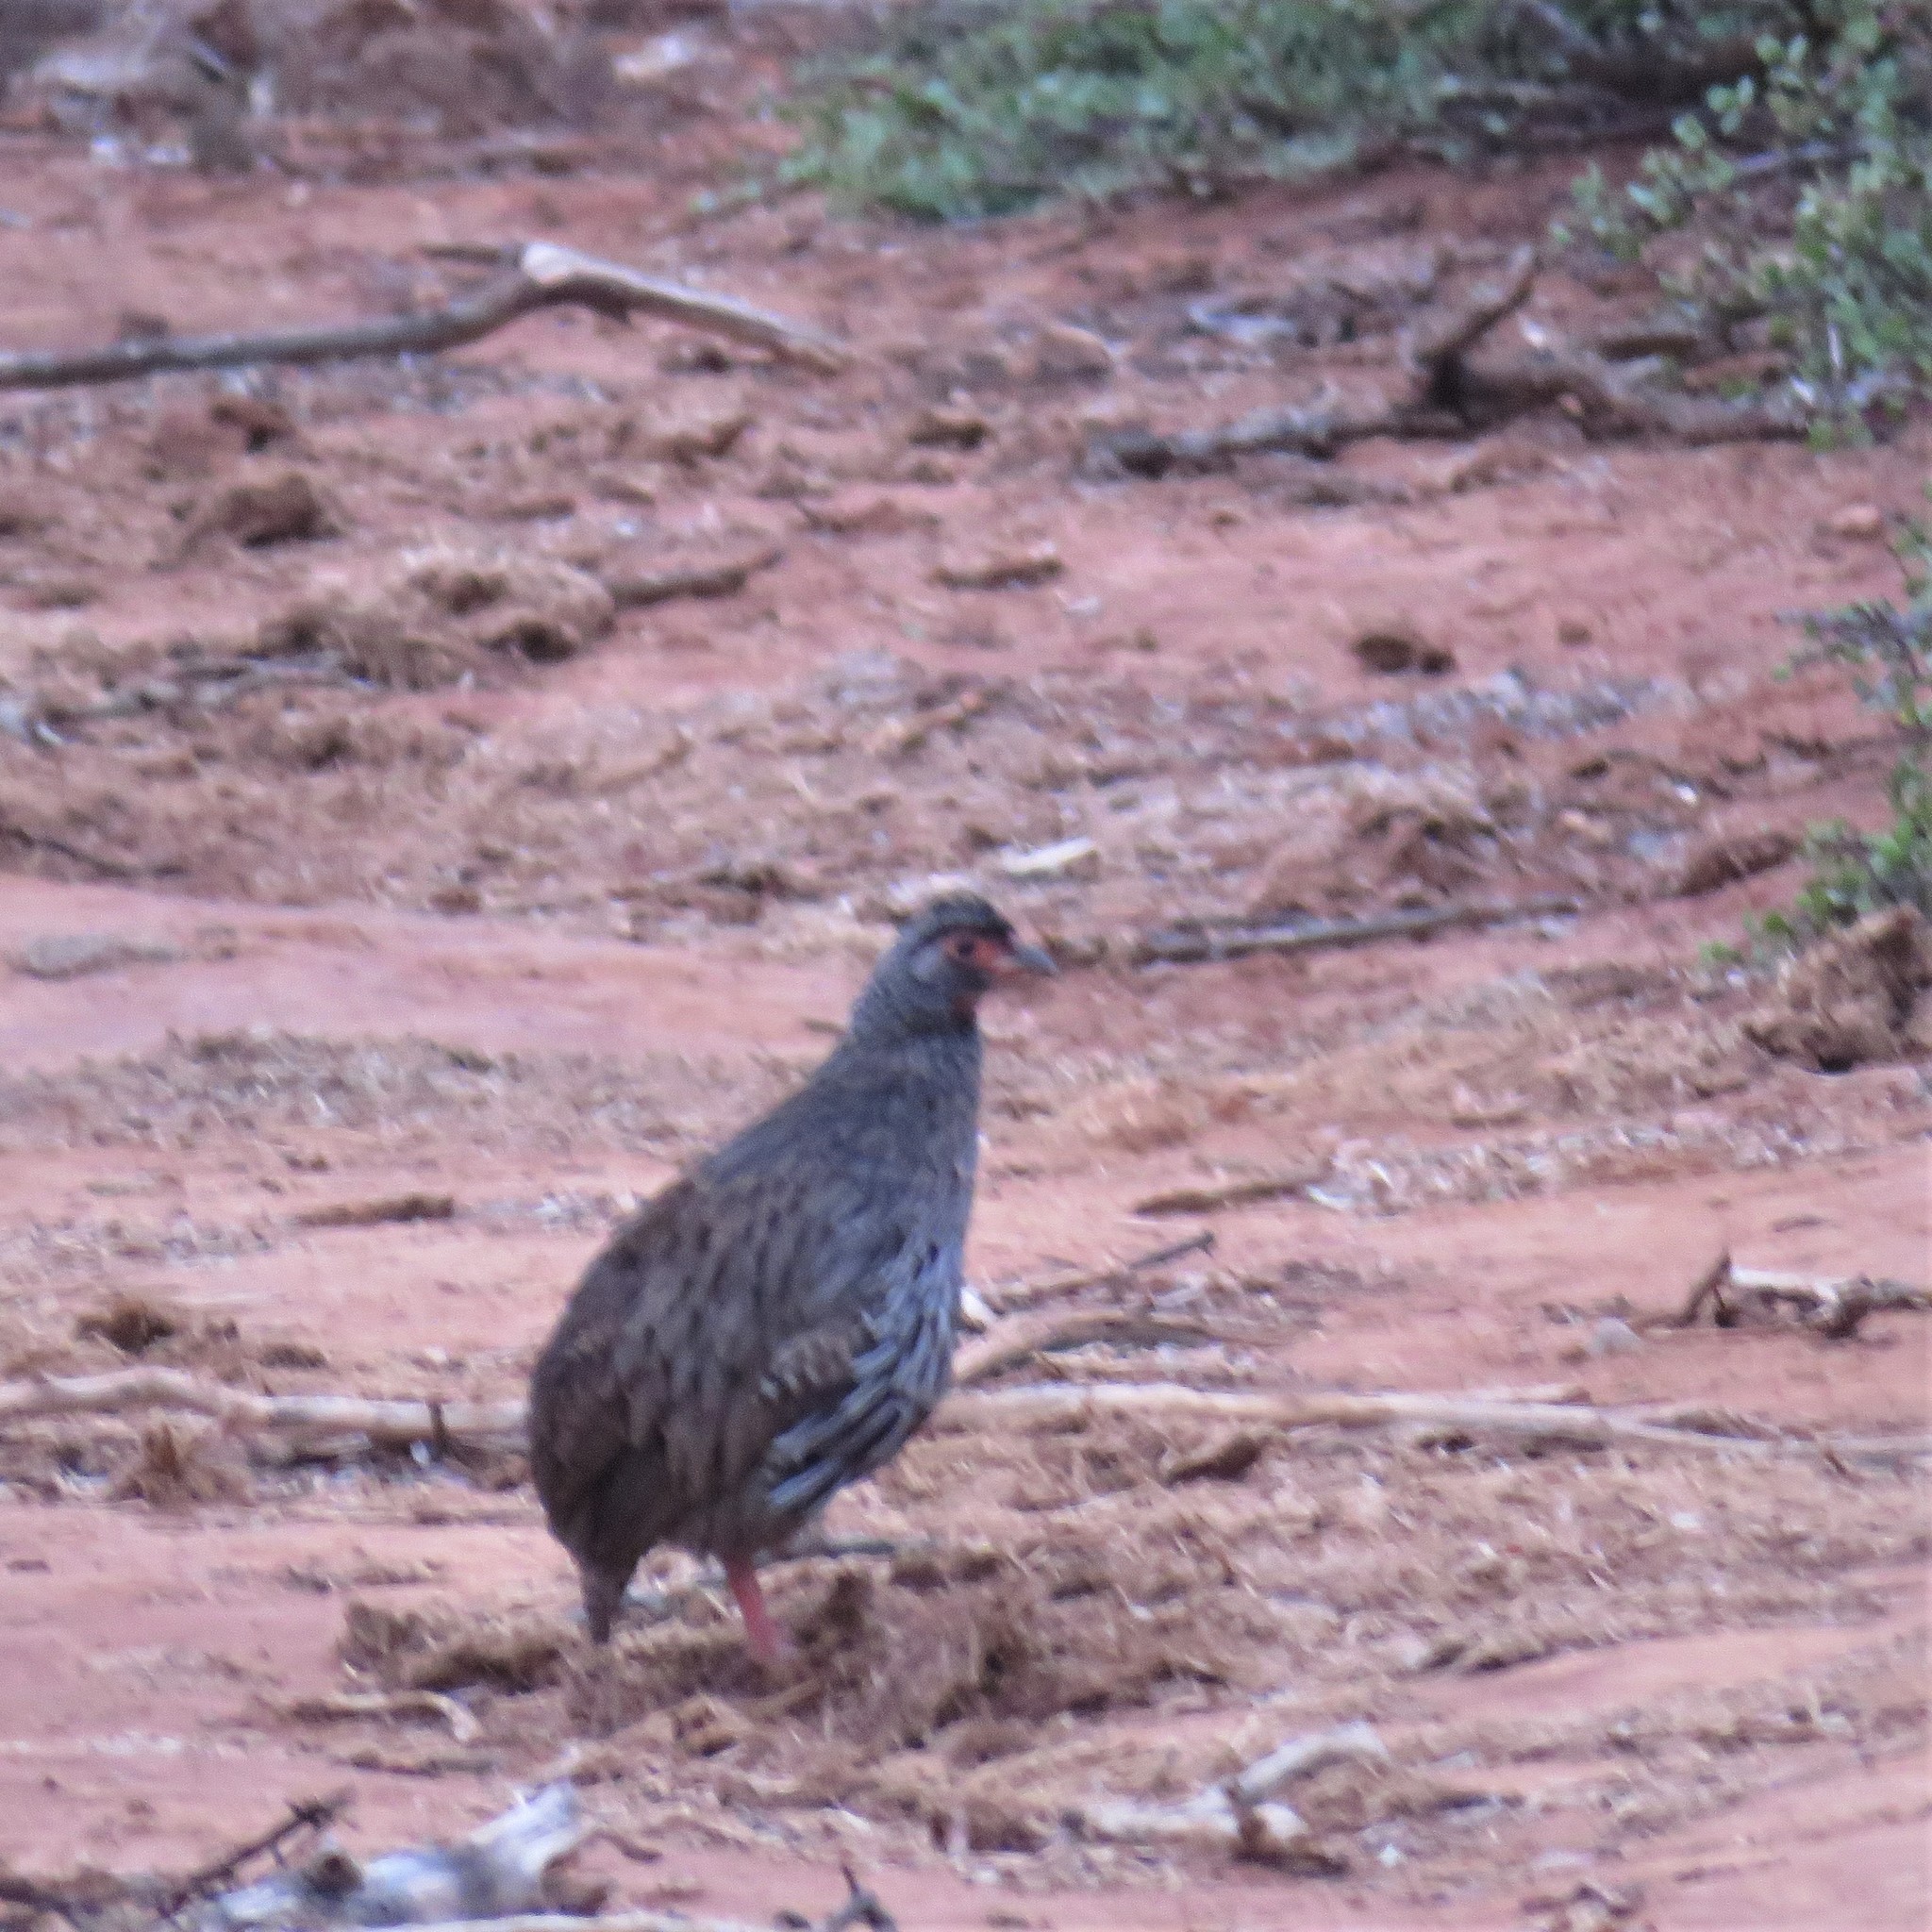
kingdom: Animalia
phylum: Chordata
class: Aves
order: Galliformes
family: Phasianidae
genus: Pternistis
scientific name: Pternistis afer
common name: Red-necked spurfowl
